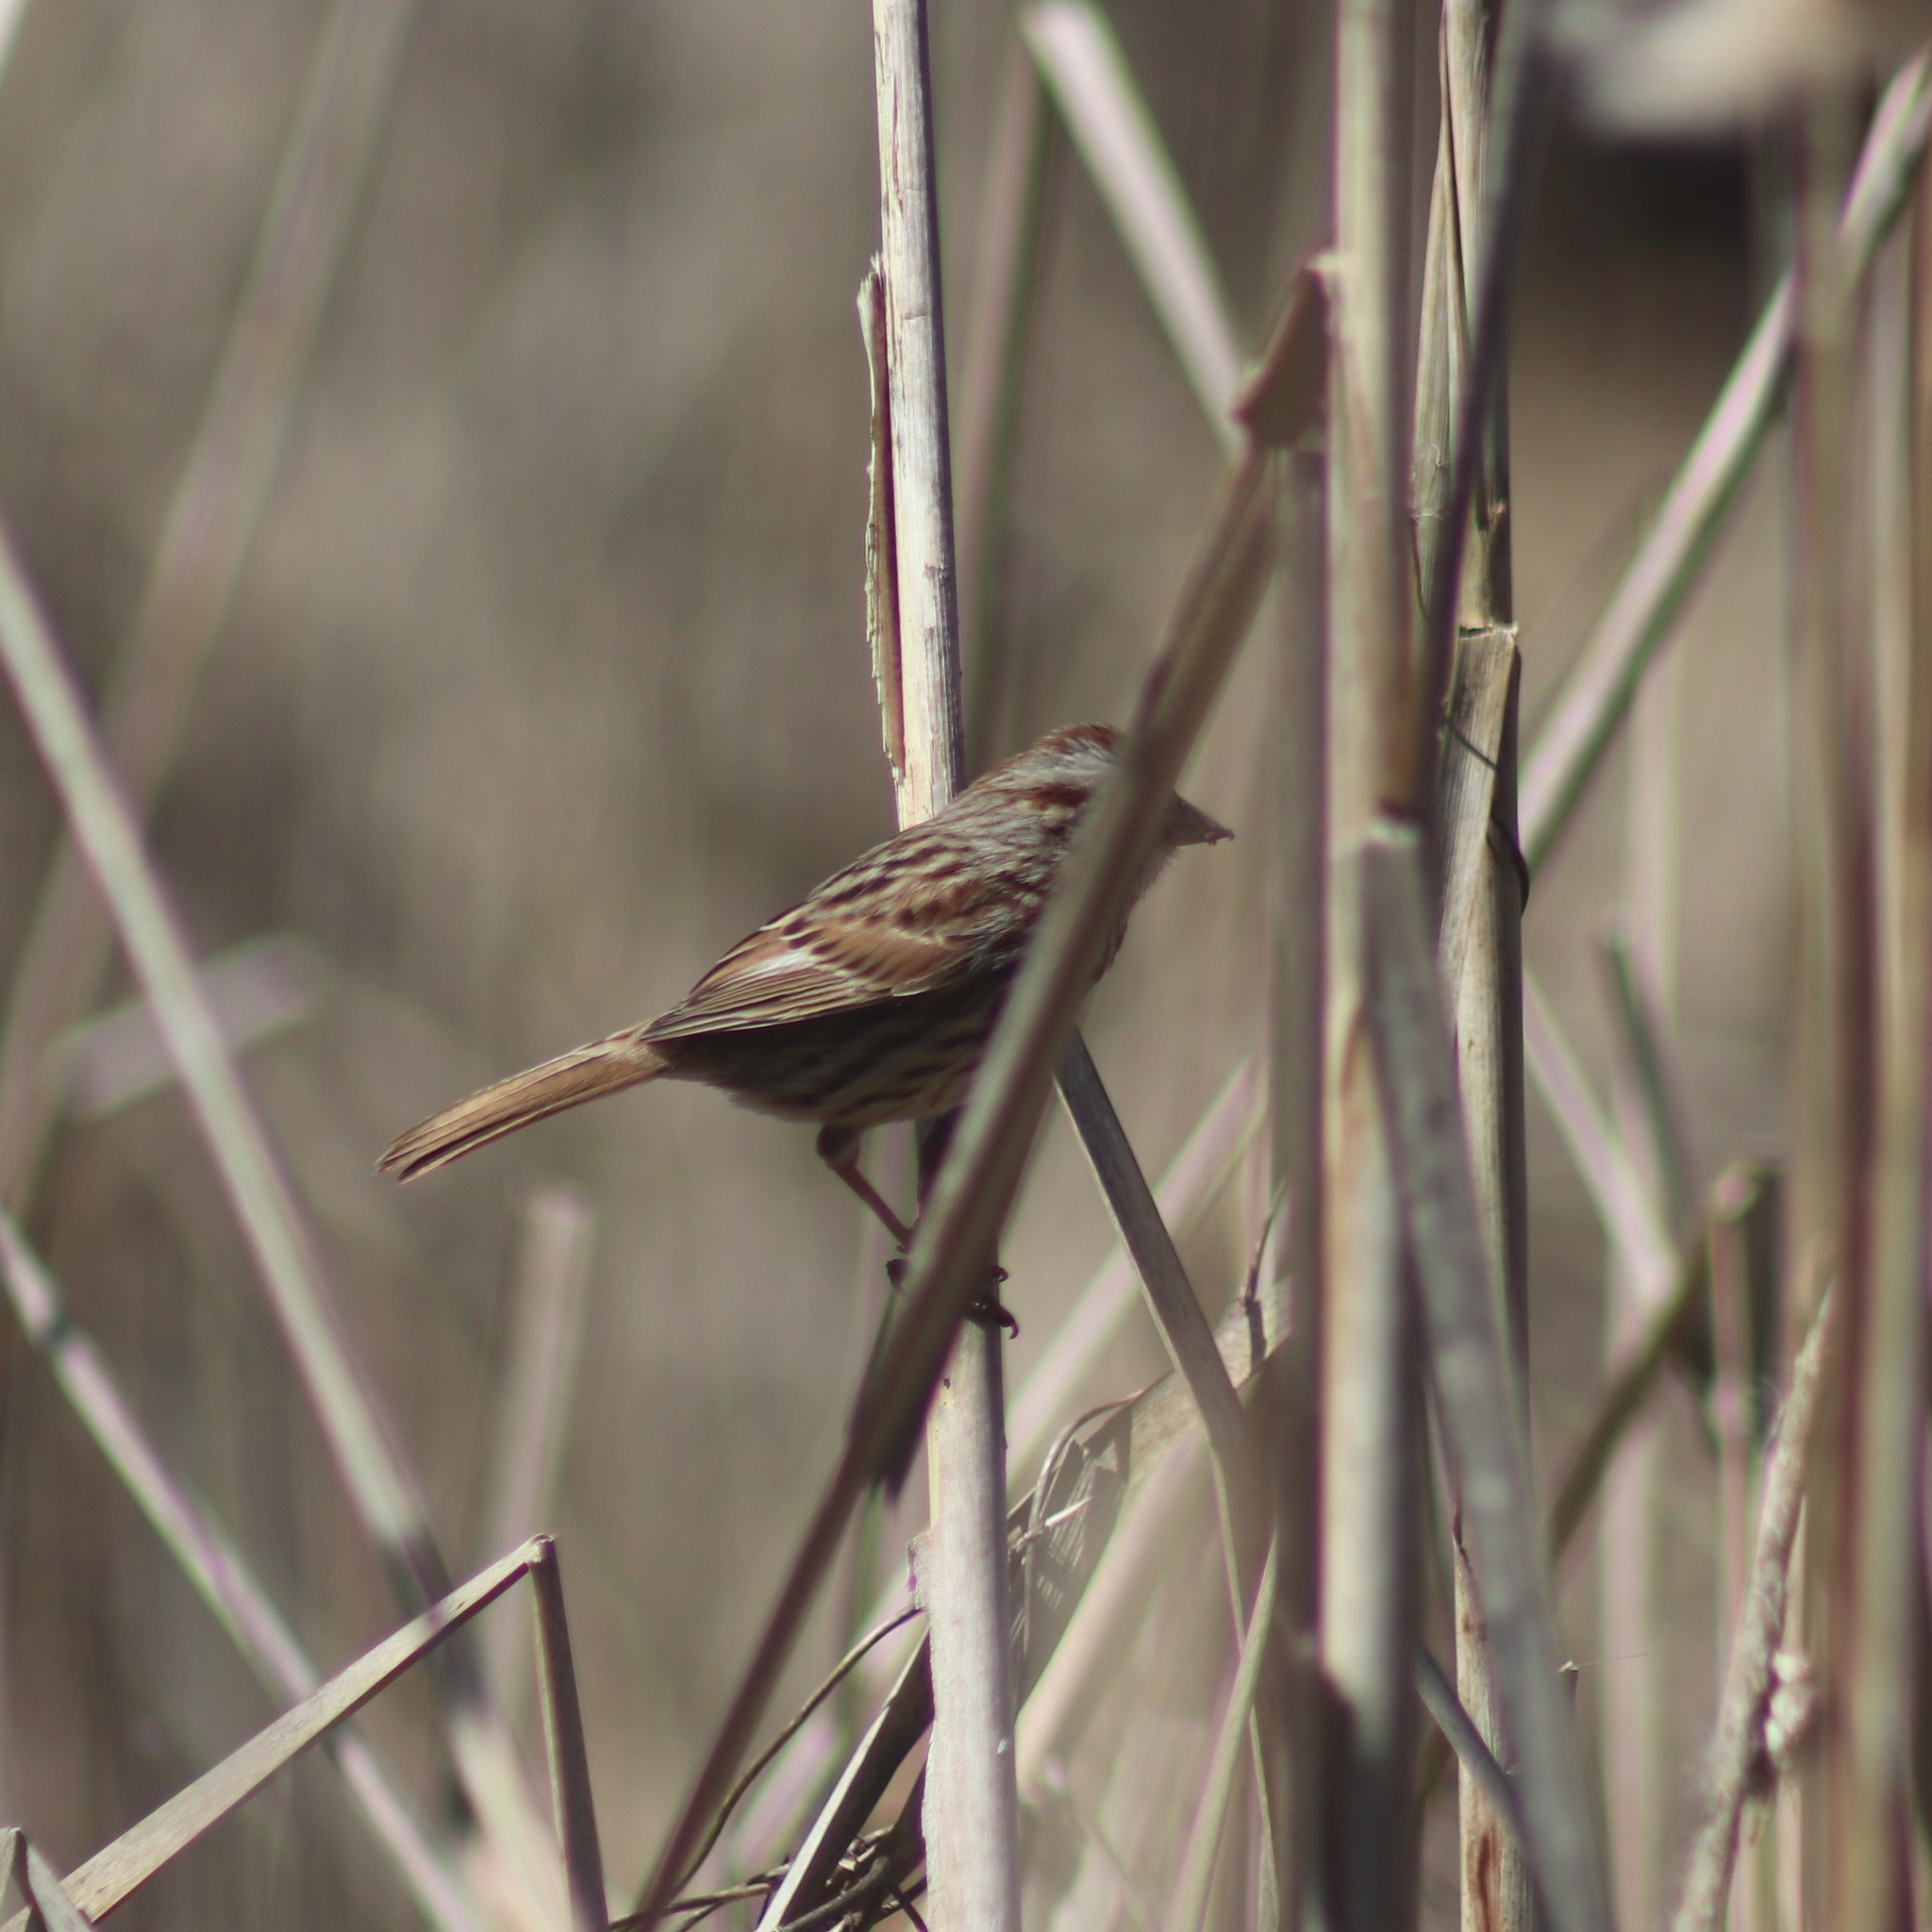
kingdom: Animalia
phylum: Chordata
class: Aves
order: Passeriformes
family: Passerellidae
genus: Melospiza
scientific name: Melospiza melodia
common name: Song sparrow
